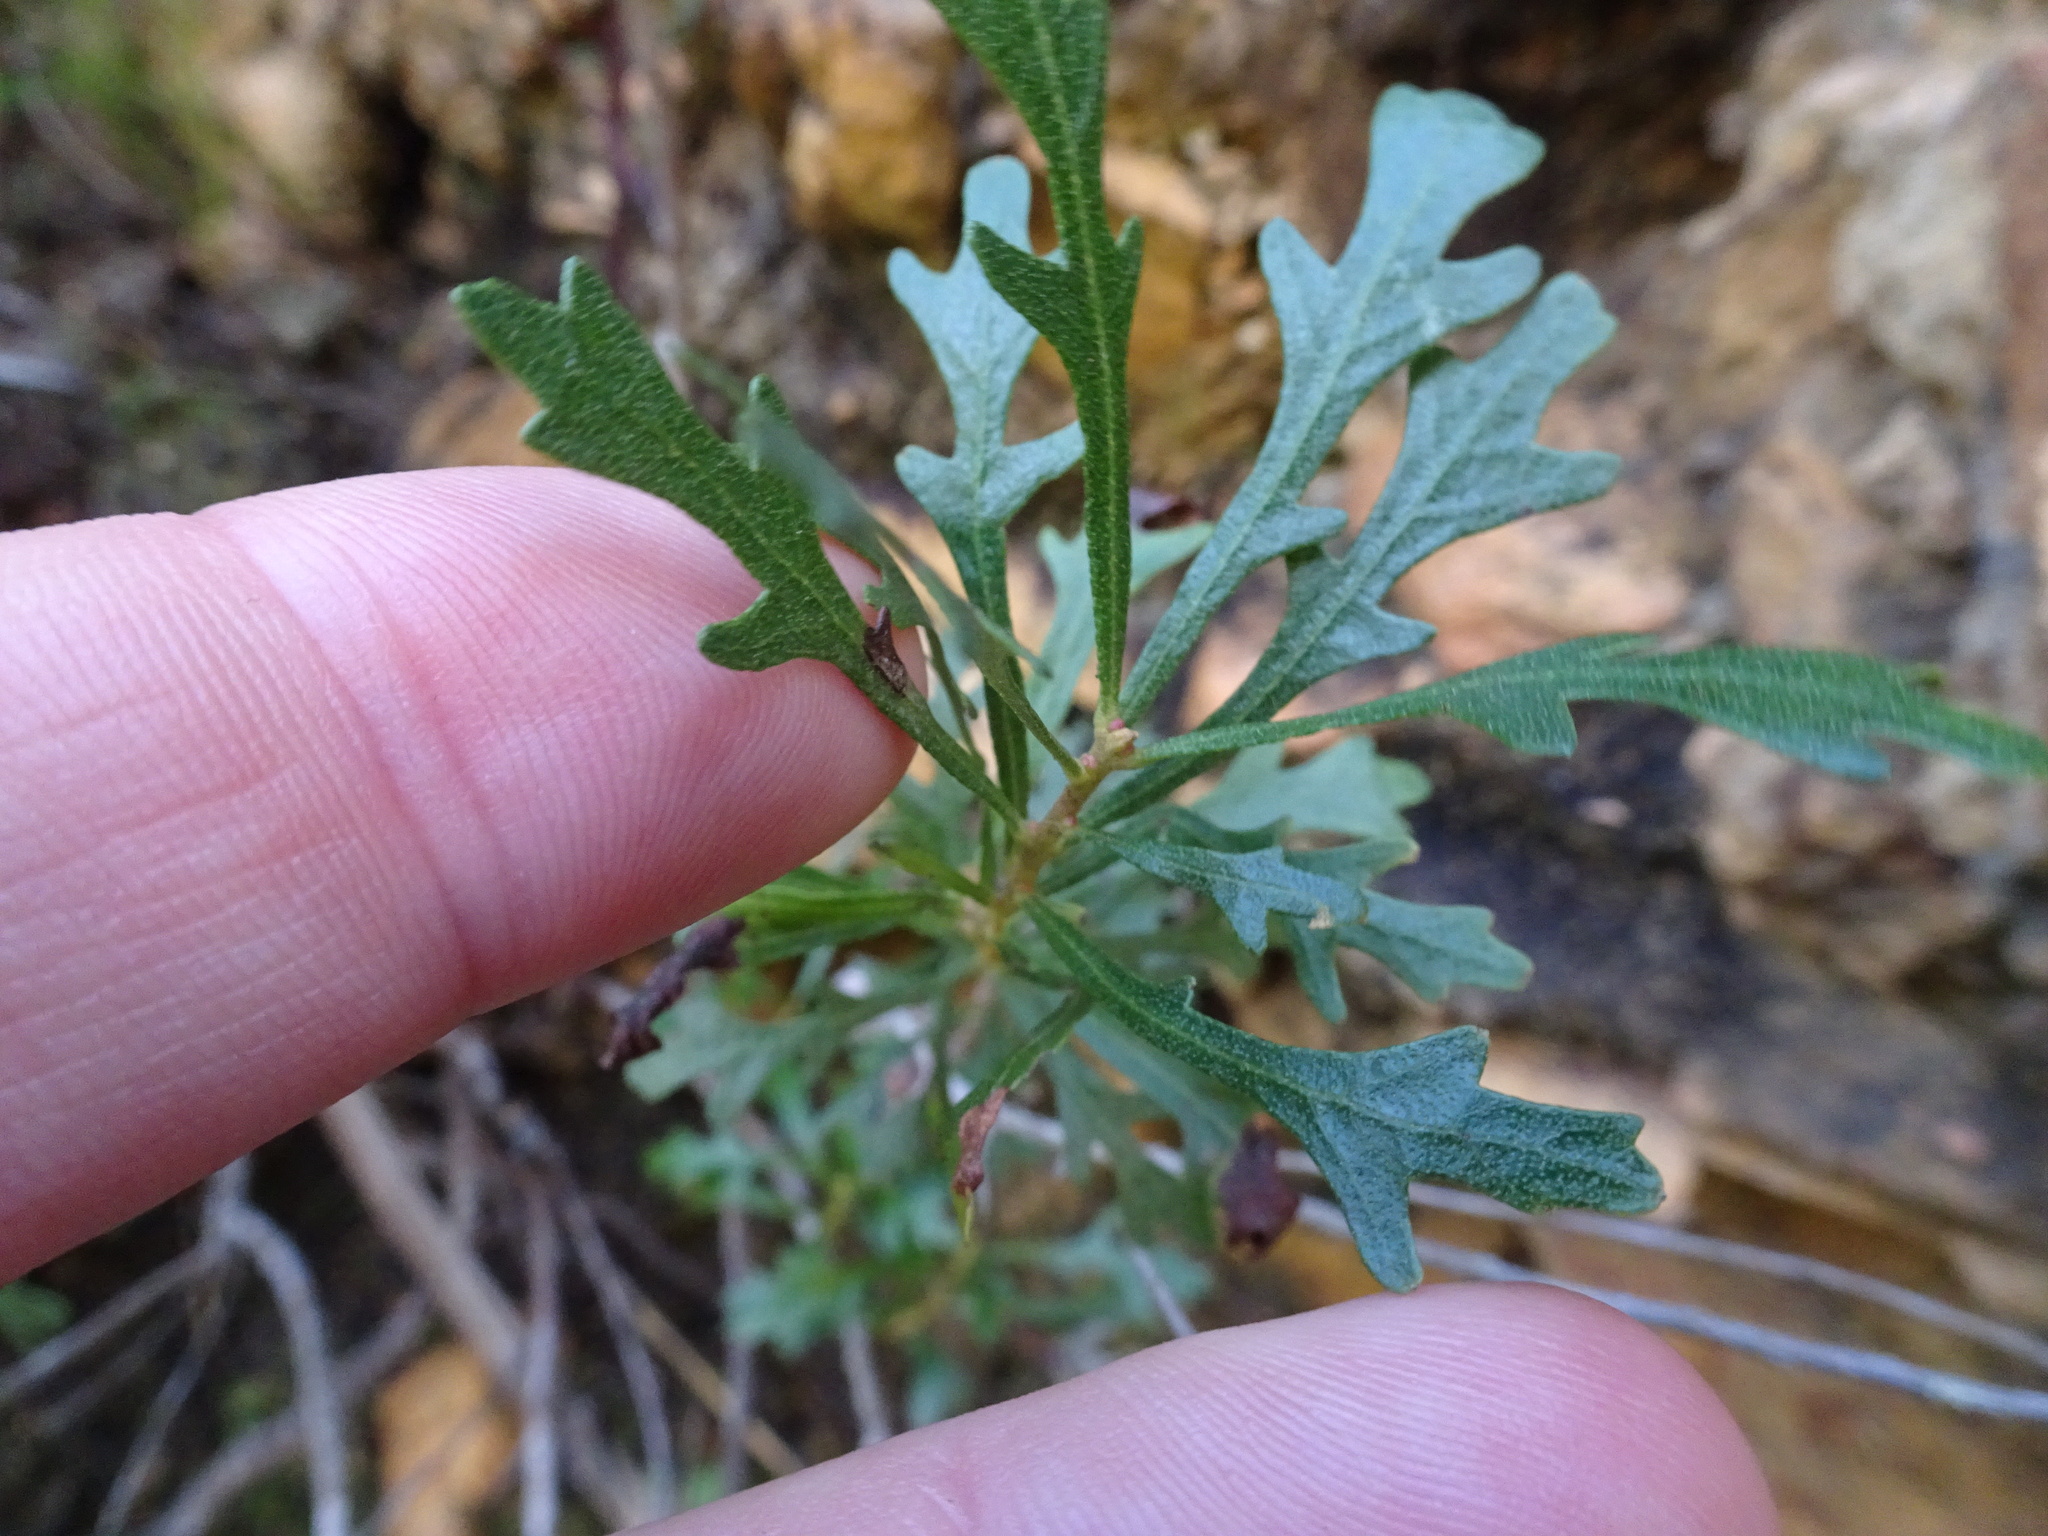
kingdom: Plantae
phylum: Tracheophyta
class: Magnoliopsida
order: Fagales
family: Myricaceae
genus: Morella
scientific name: Morella quercifolia
